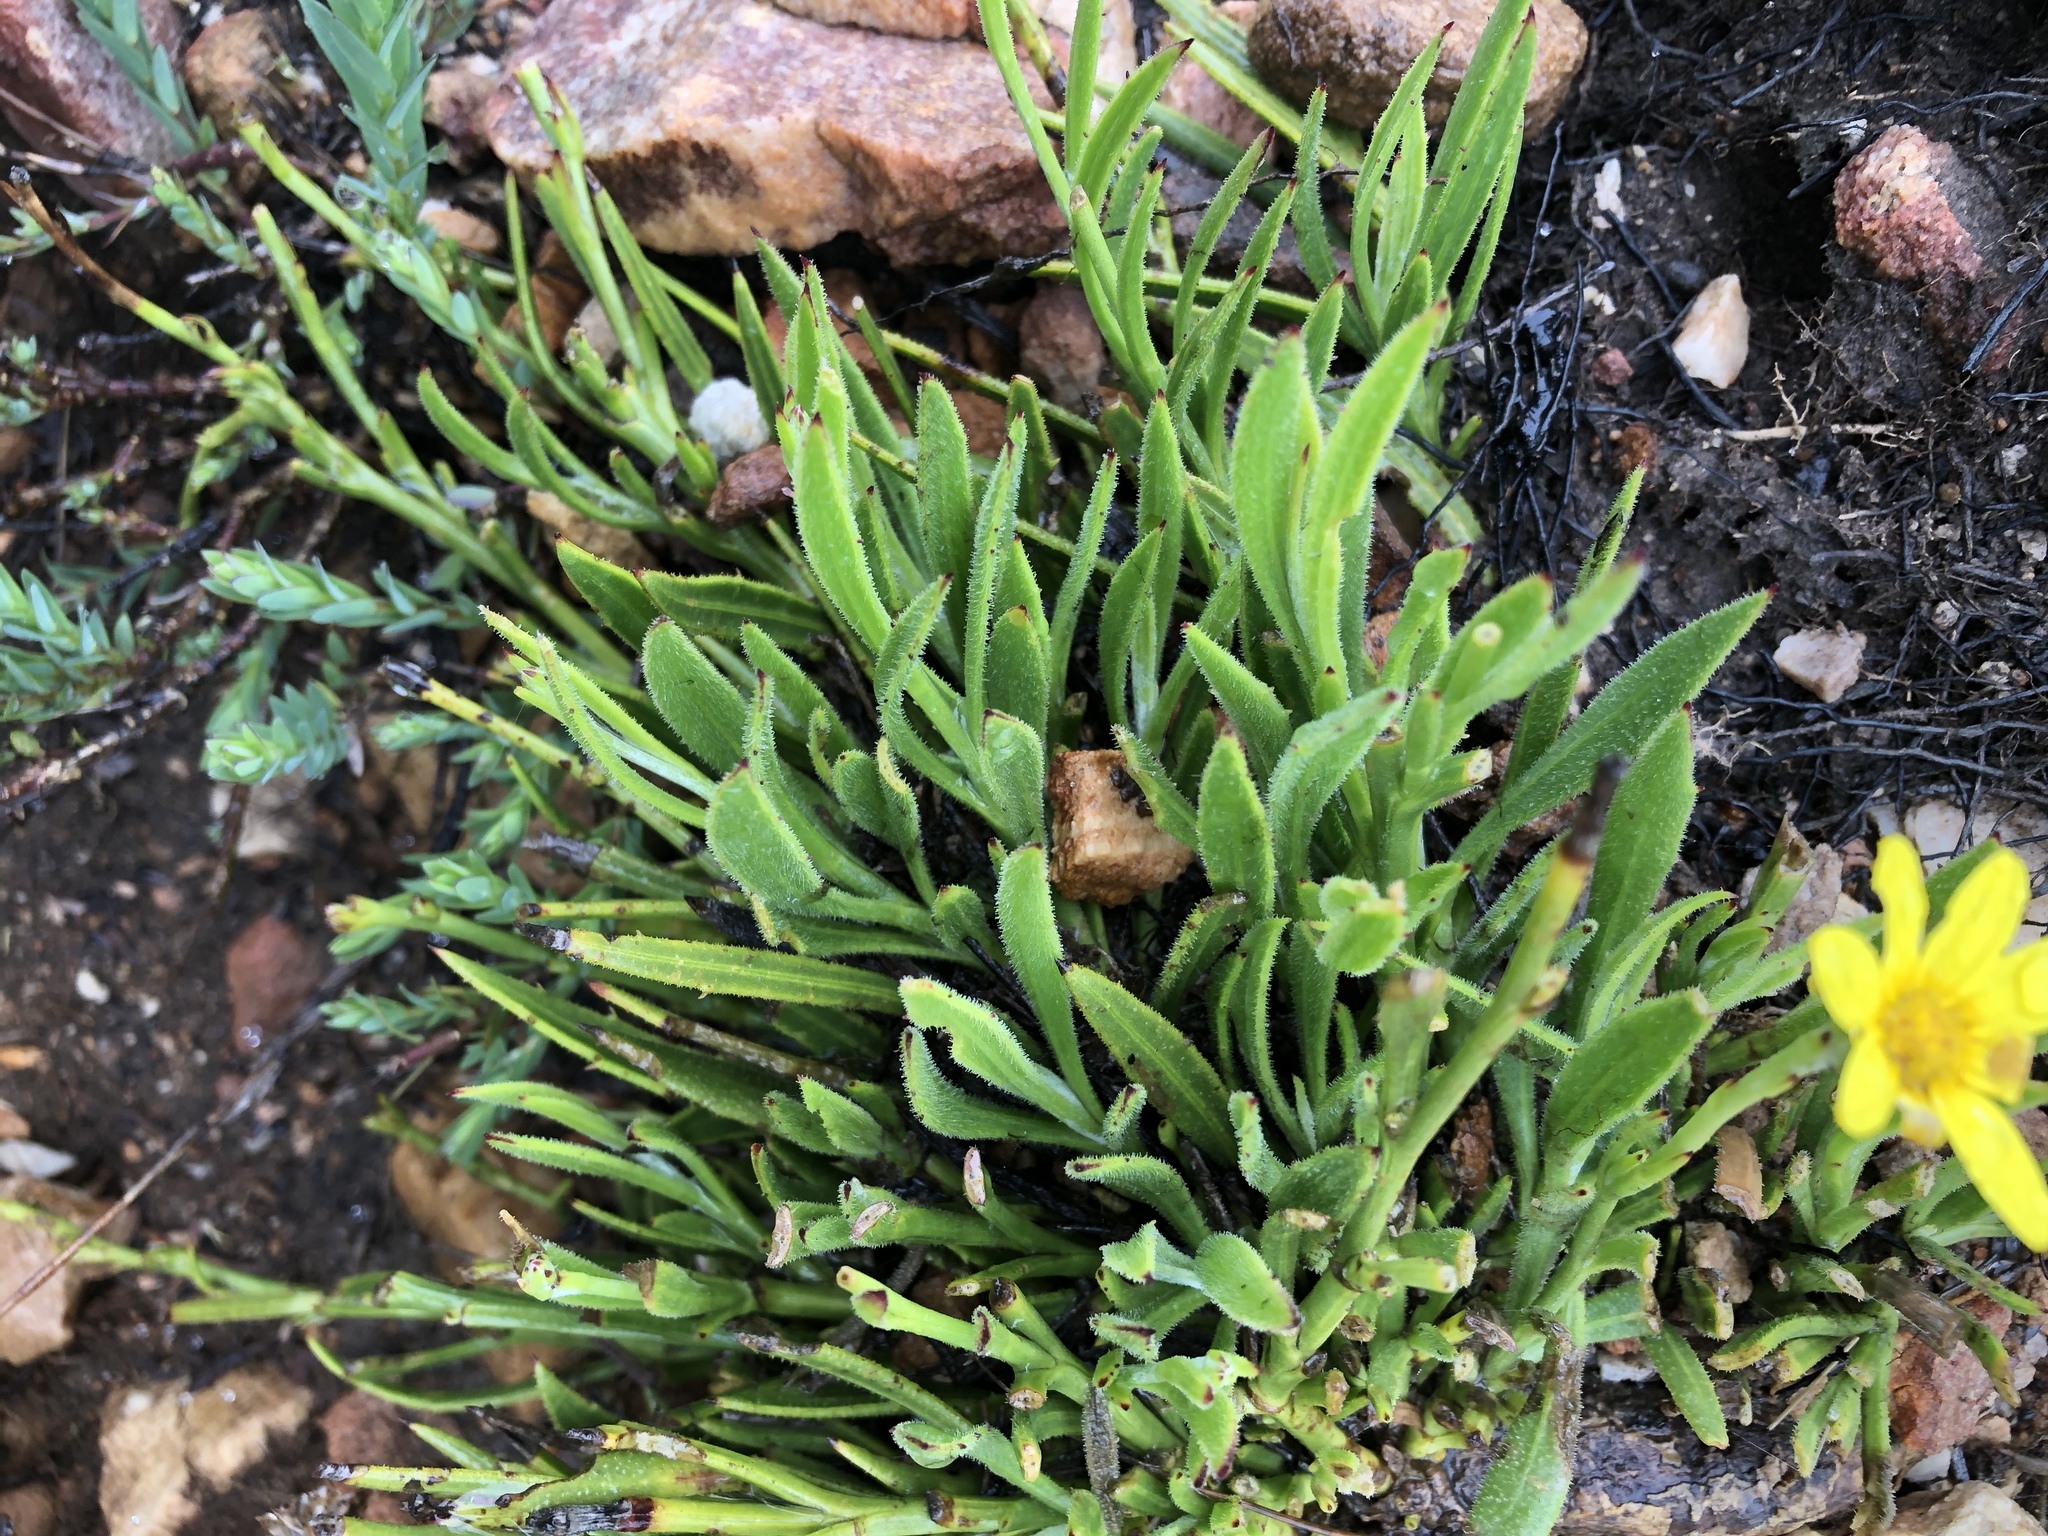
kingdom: Plantae
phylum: Tracheophyta
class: Magnoliopsida
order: Asterales
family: Asteraceae
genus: Osteospermum
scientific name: Osteospermum asperulum
